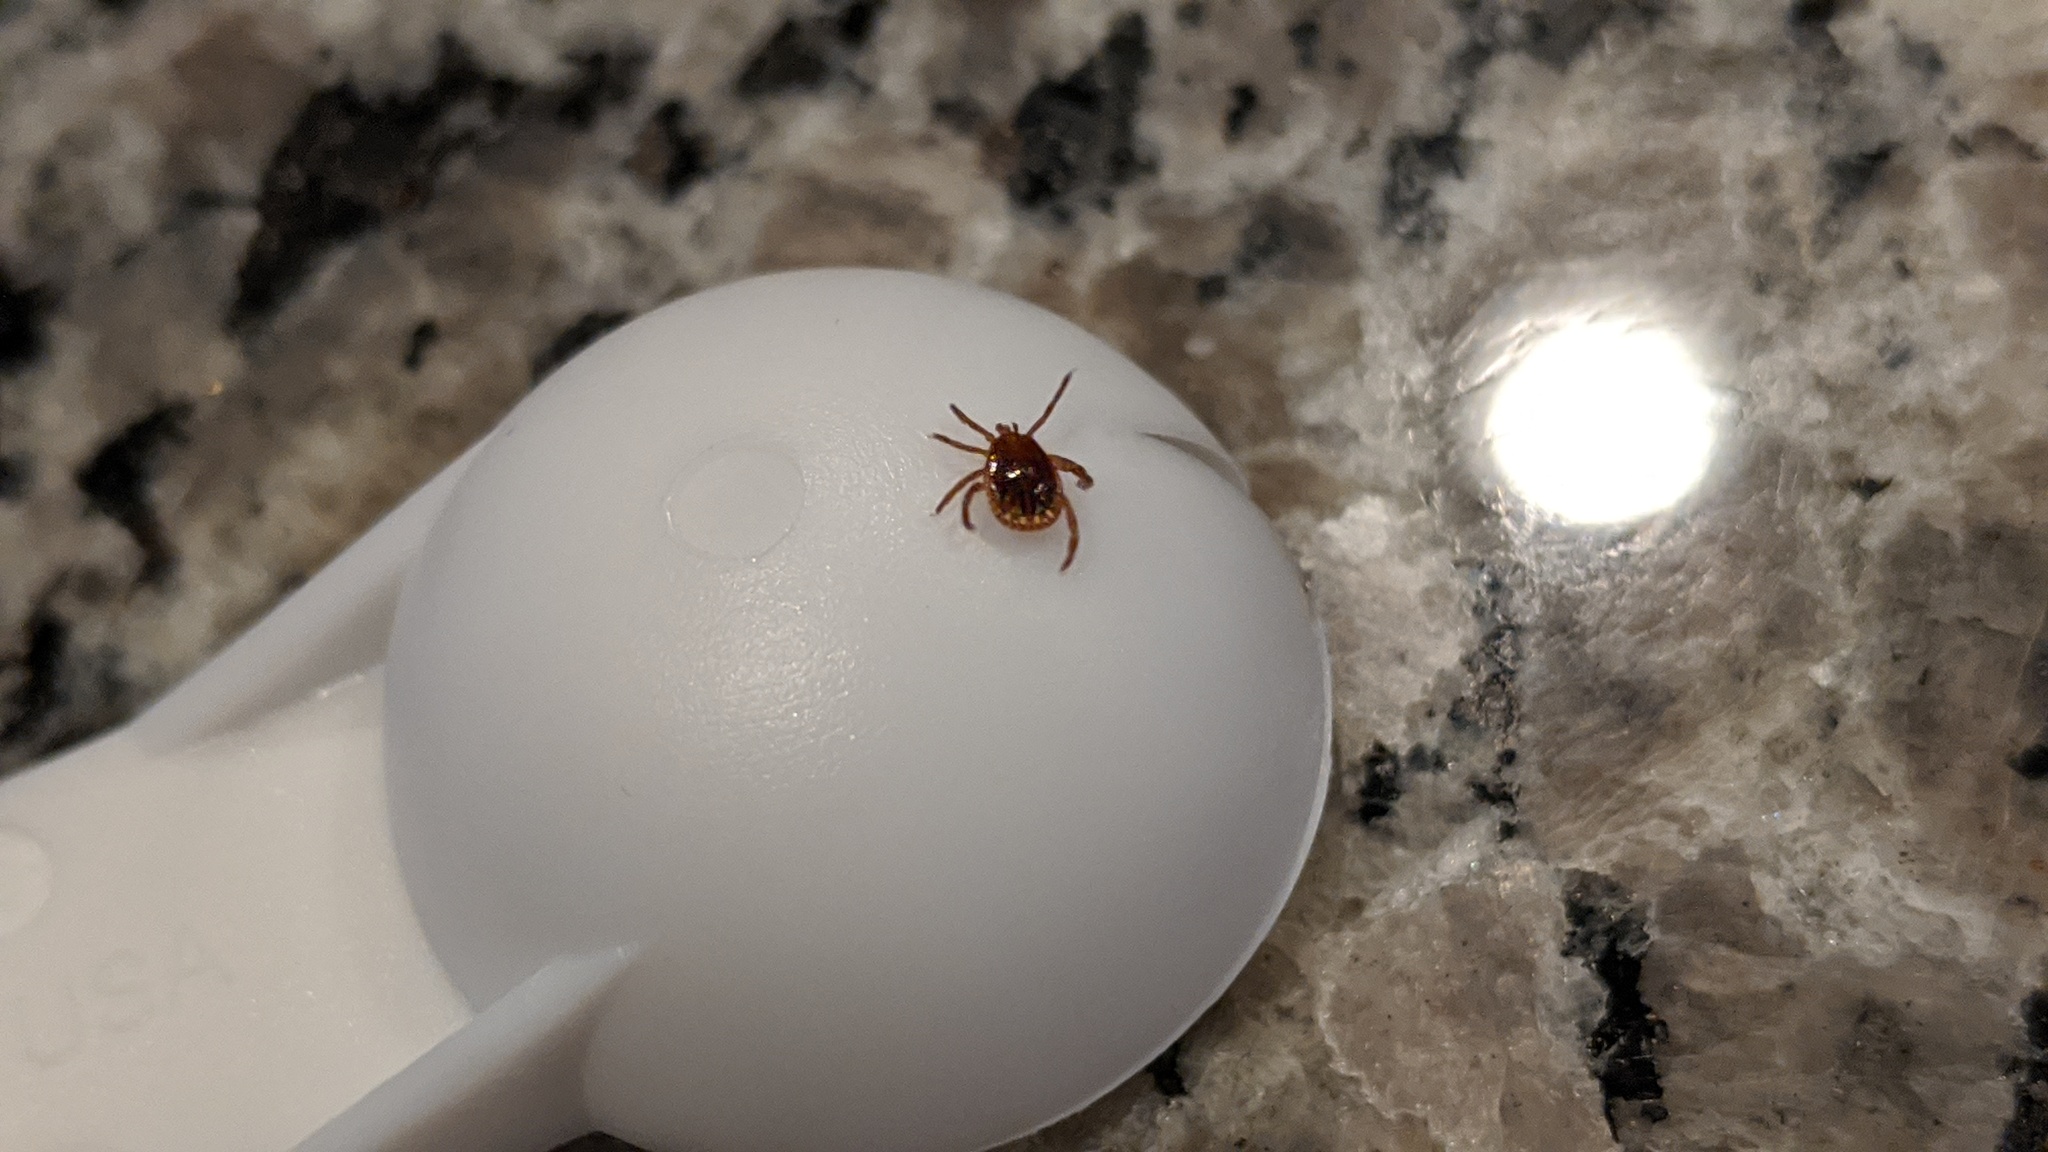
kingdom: Animalia
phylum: Arthropoda
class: Arachnida
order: Ixodida
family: Ixodidae
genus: Amblyomma
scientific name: Amblyomma americanum
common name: Lone star tick
